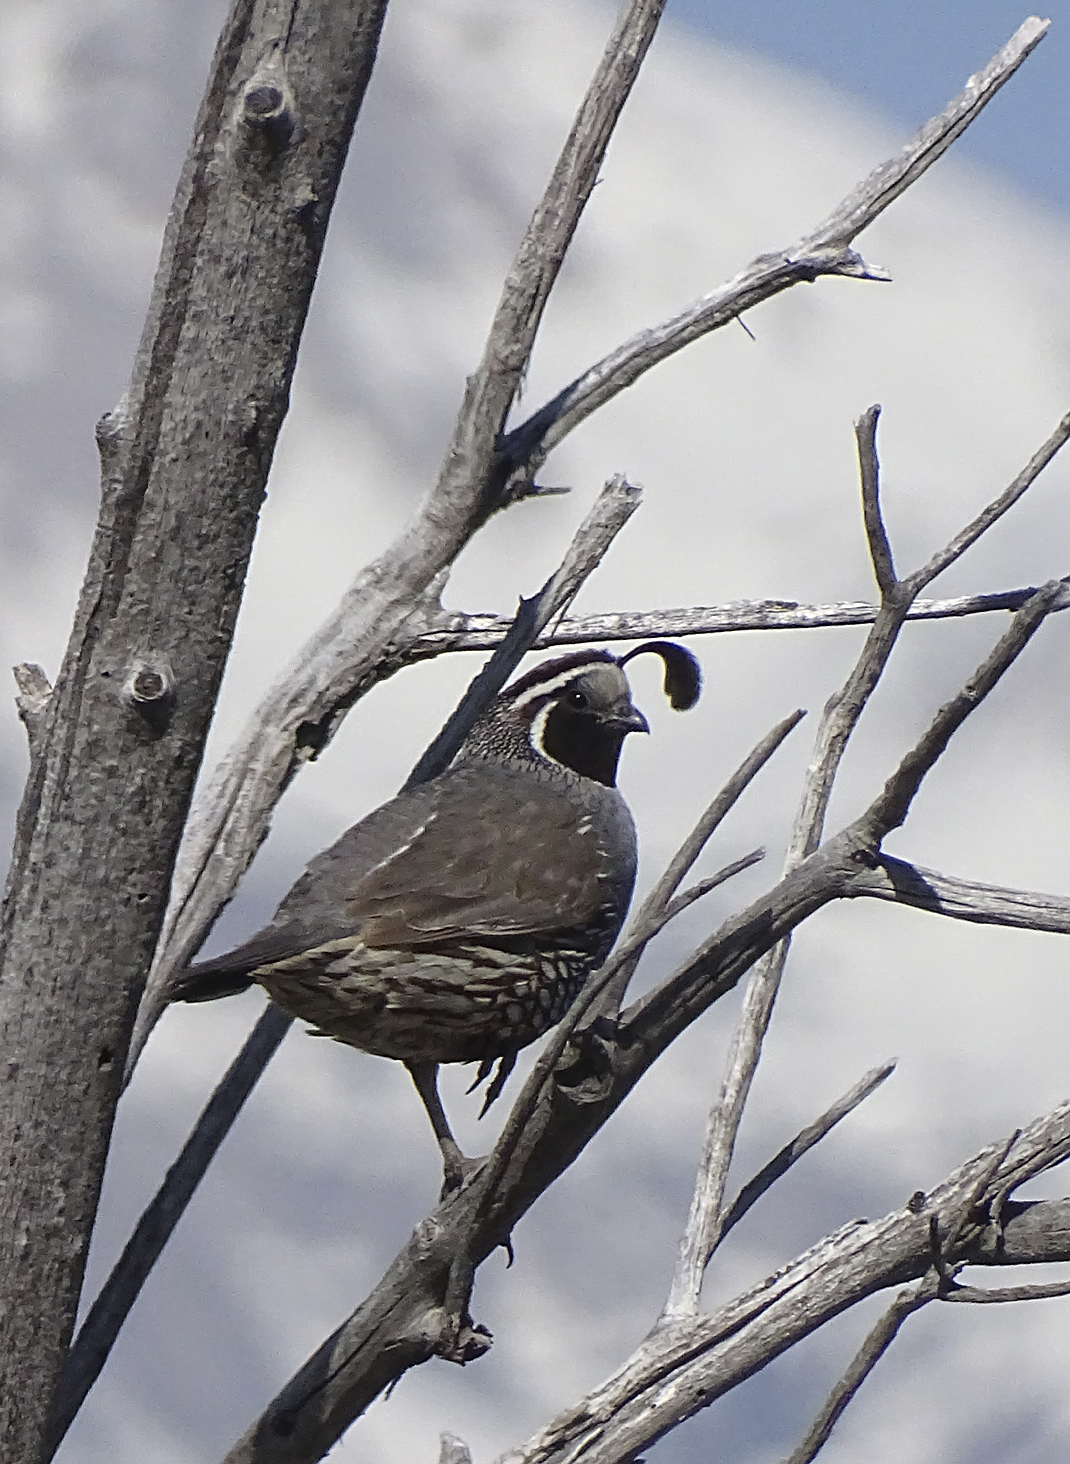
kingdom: Animalia
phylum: Chordata
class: Aves
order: Galliformes
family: Odontophoridae
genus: Callipepla
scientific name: Callipepla californica
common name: California quail
